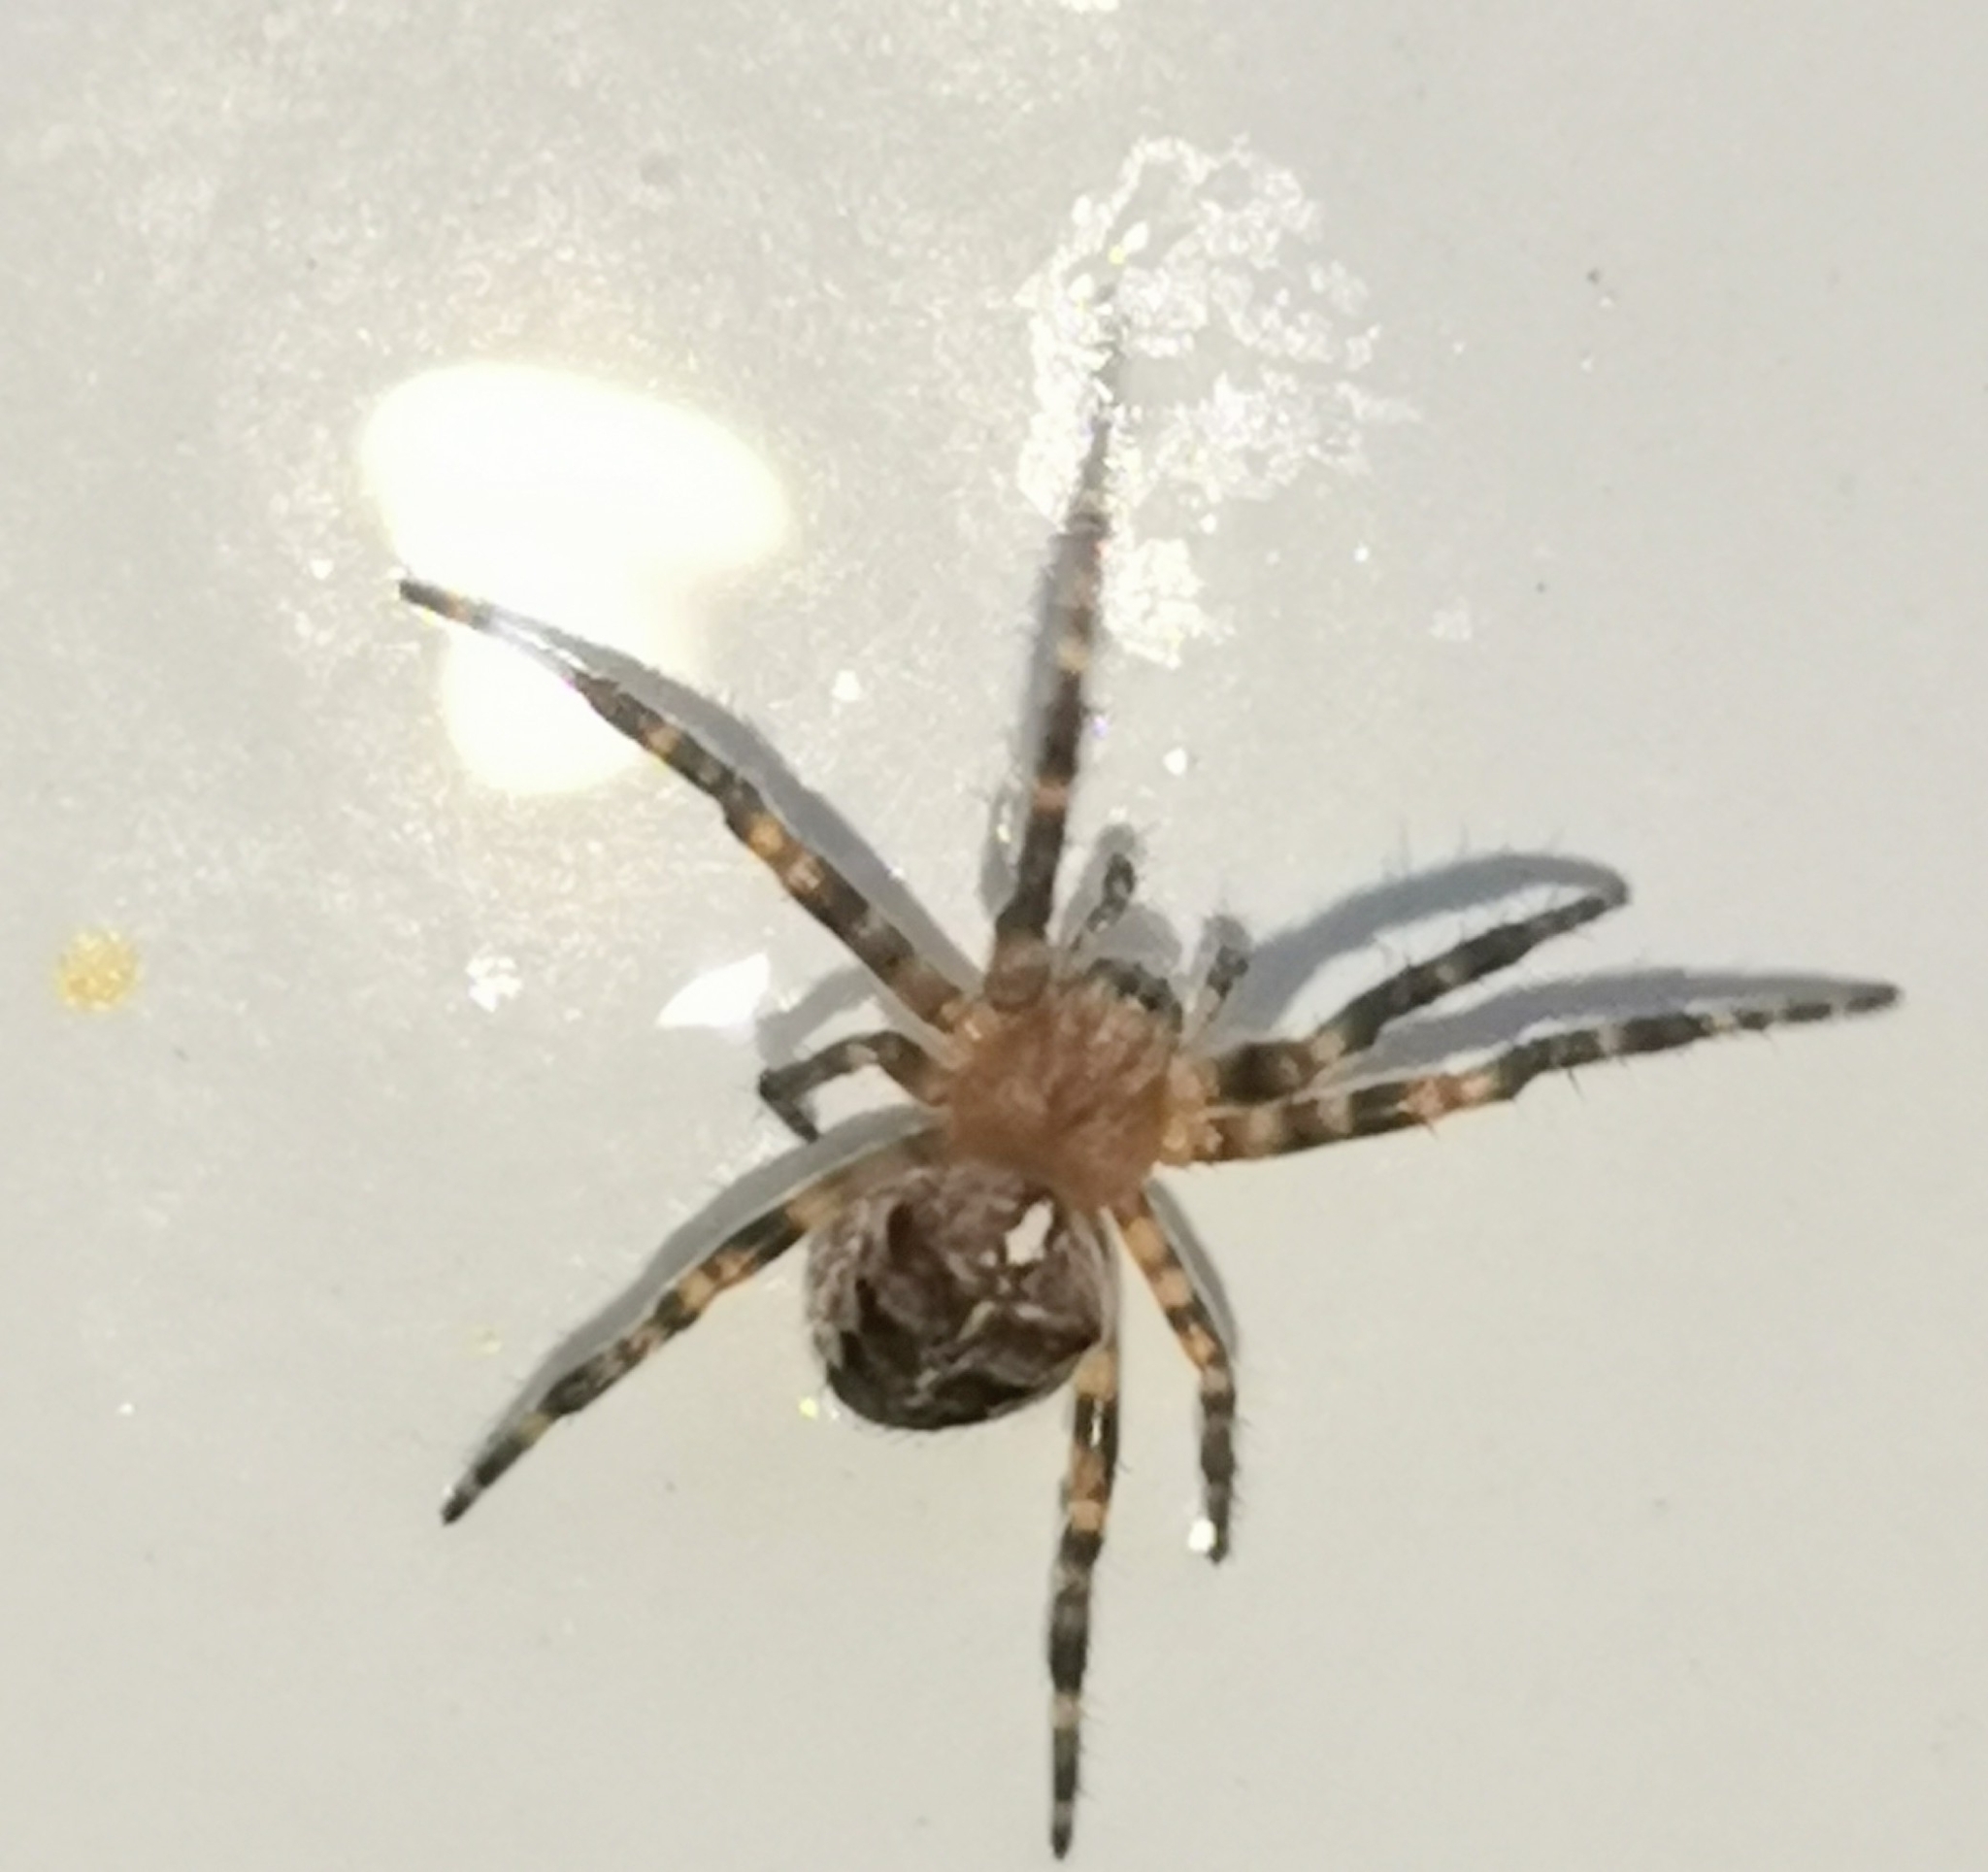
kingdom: Animalia
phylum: Arthropoda
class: Arachnida
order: Araneae
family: Araneidae
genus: Araneus
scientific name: Araneus diadematus
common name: Cross orbweaver
